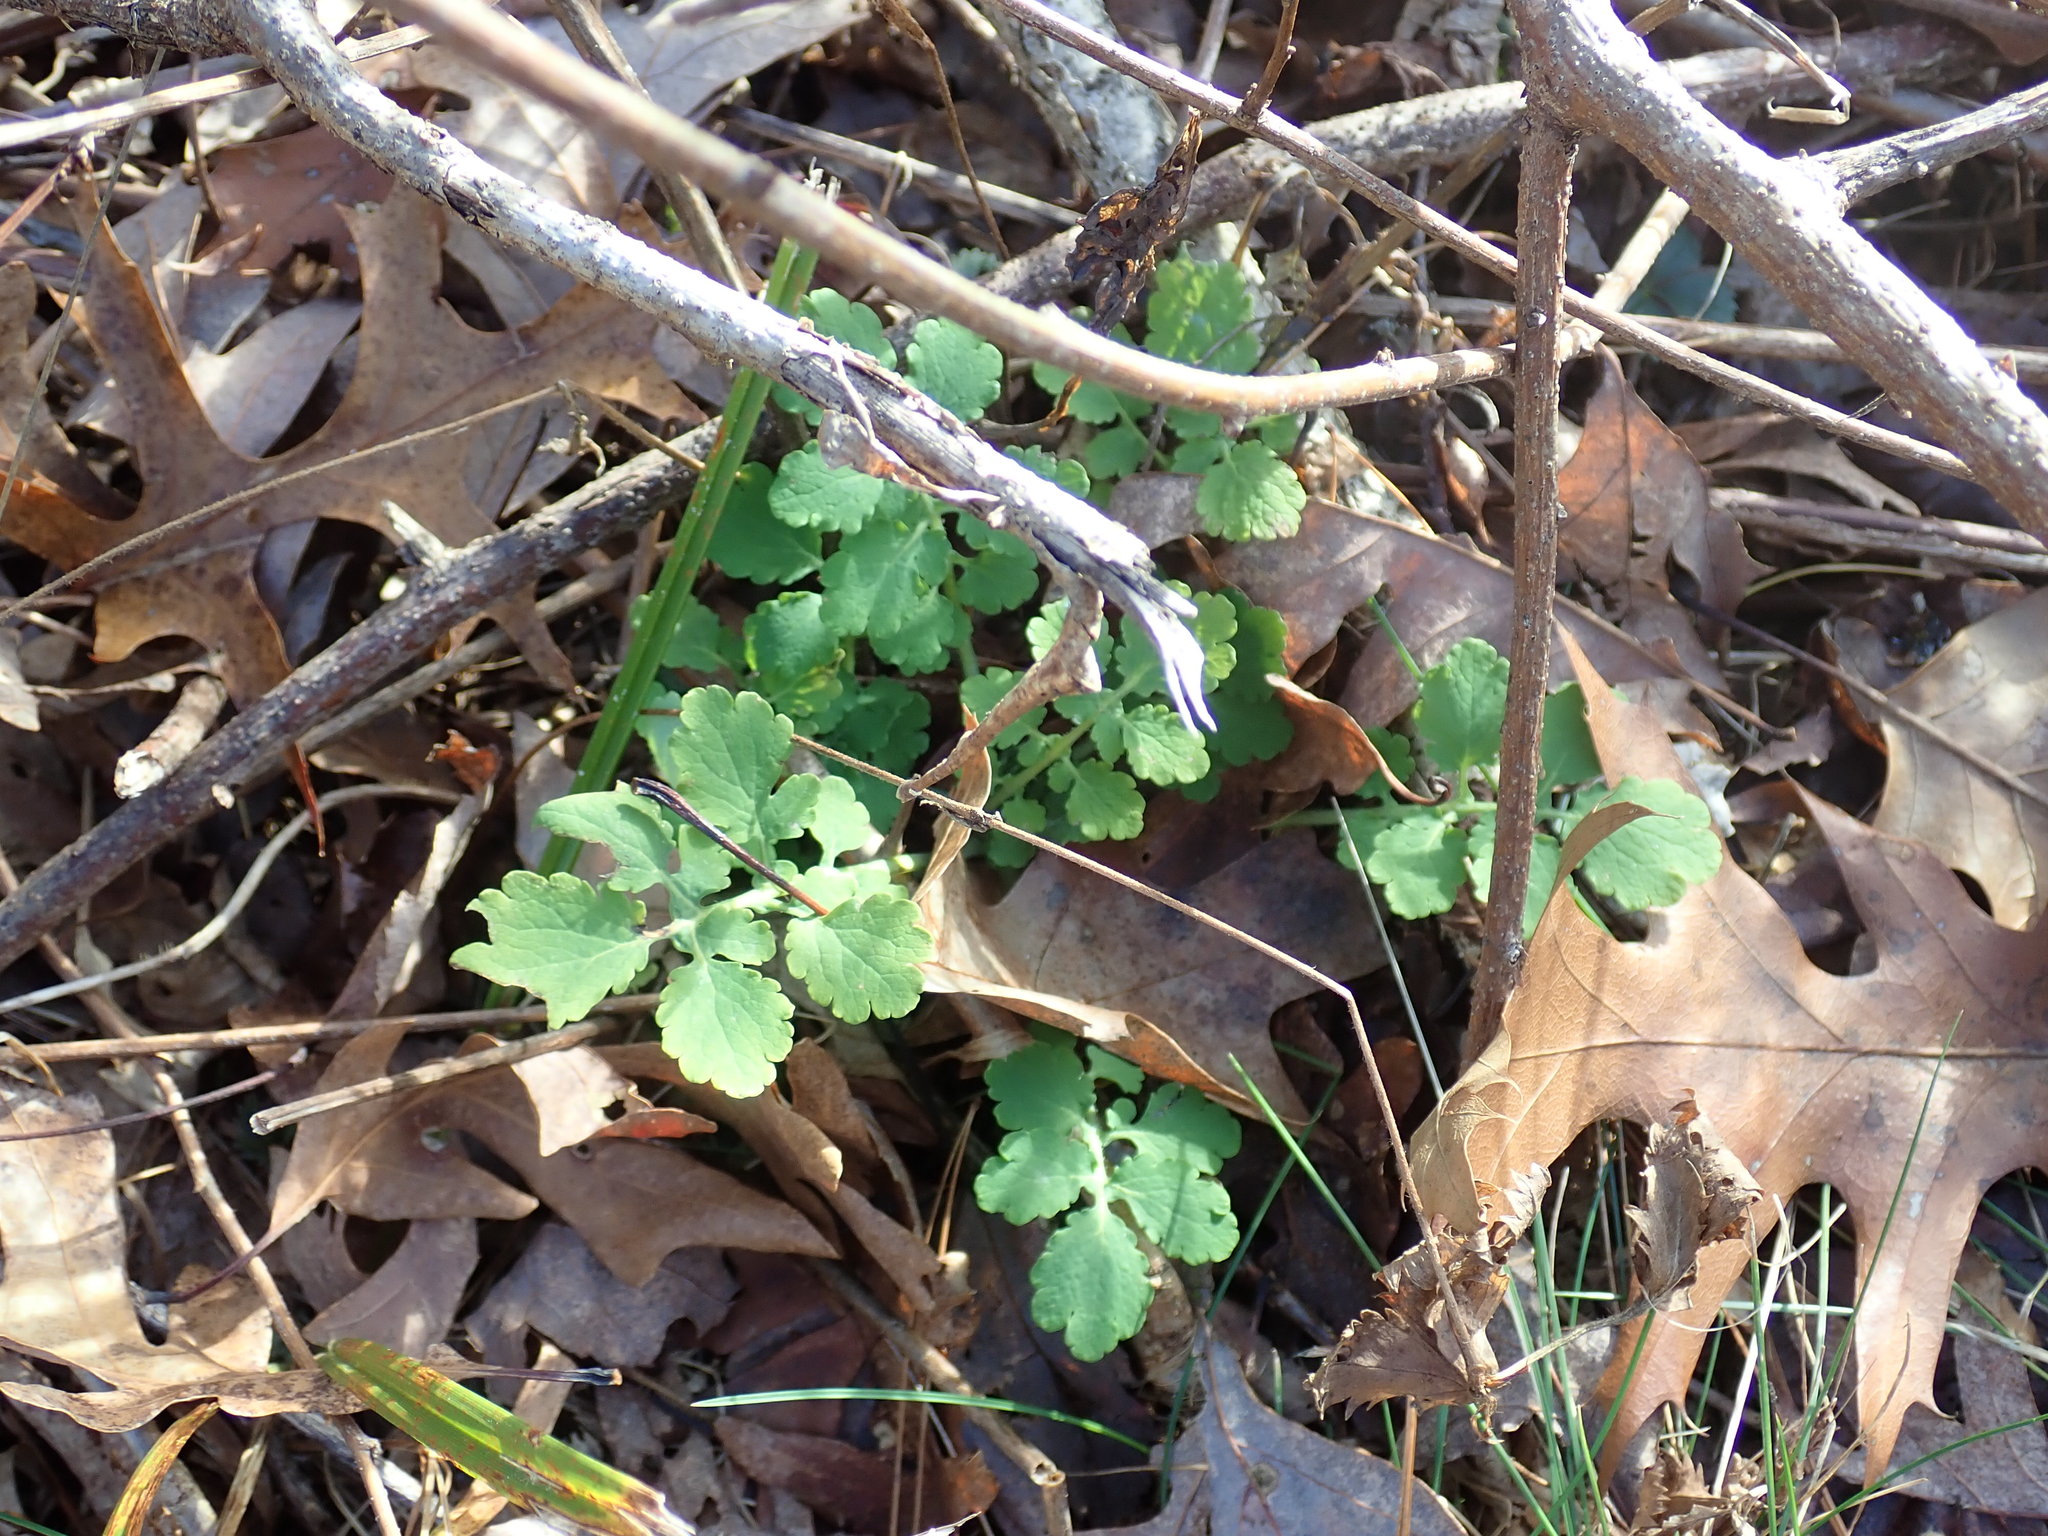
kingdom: Plantae
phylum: Tracheophyta
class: Magnoliopsida
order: Ranunculales
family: Papaveraceae
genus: Chelidonium
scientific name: Chelidonium majus
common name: Greater celandine
